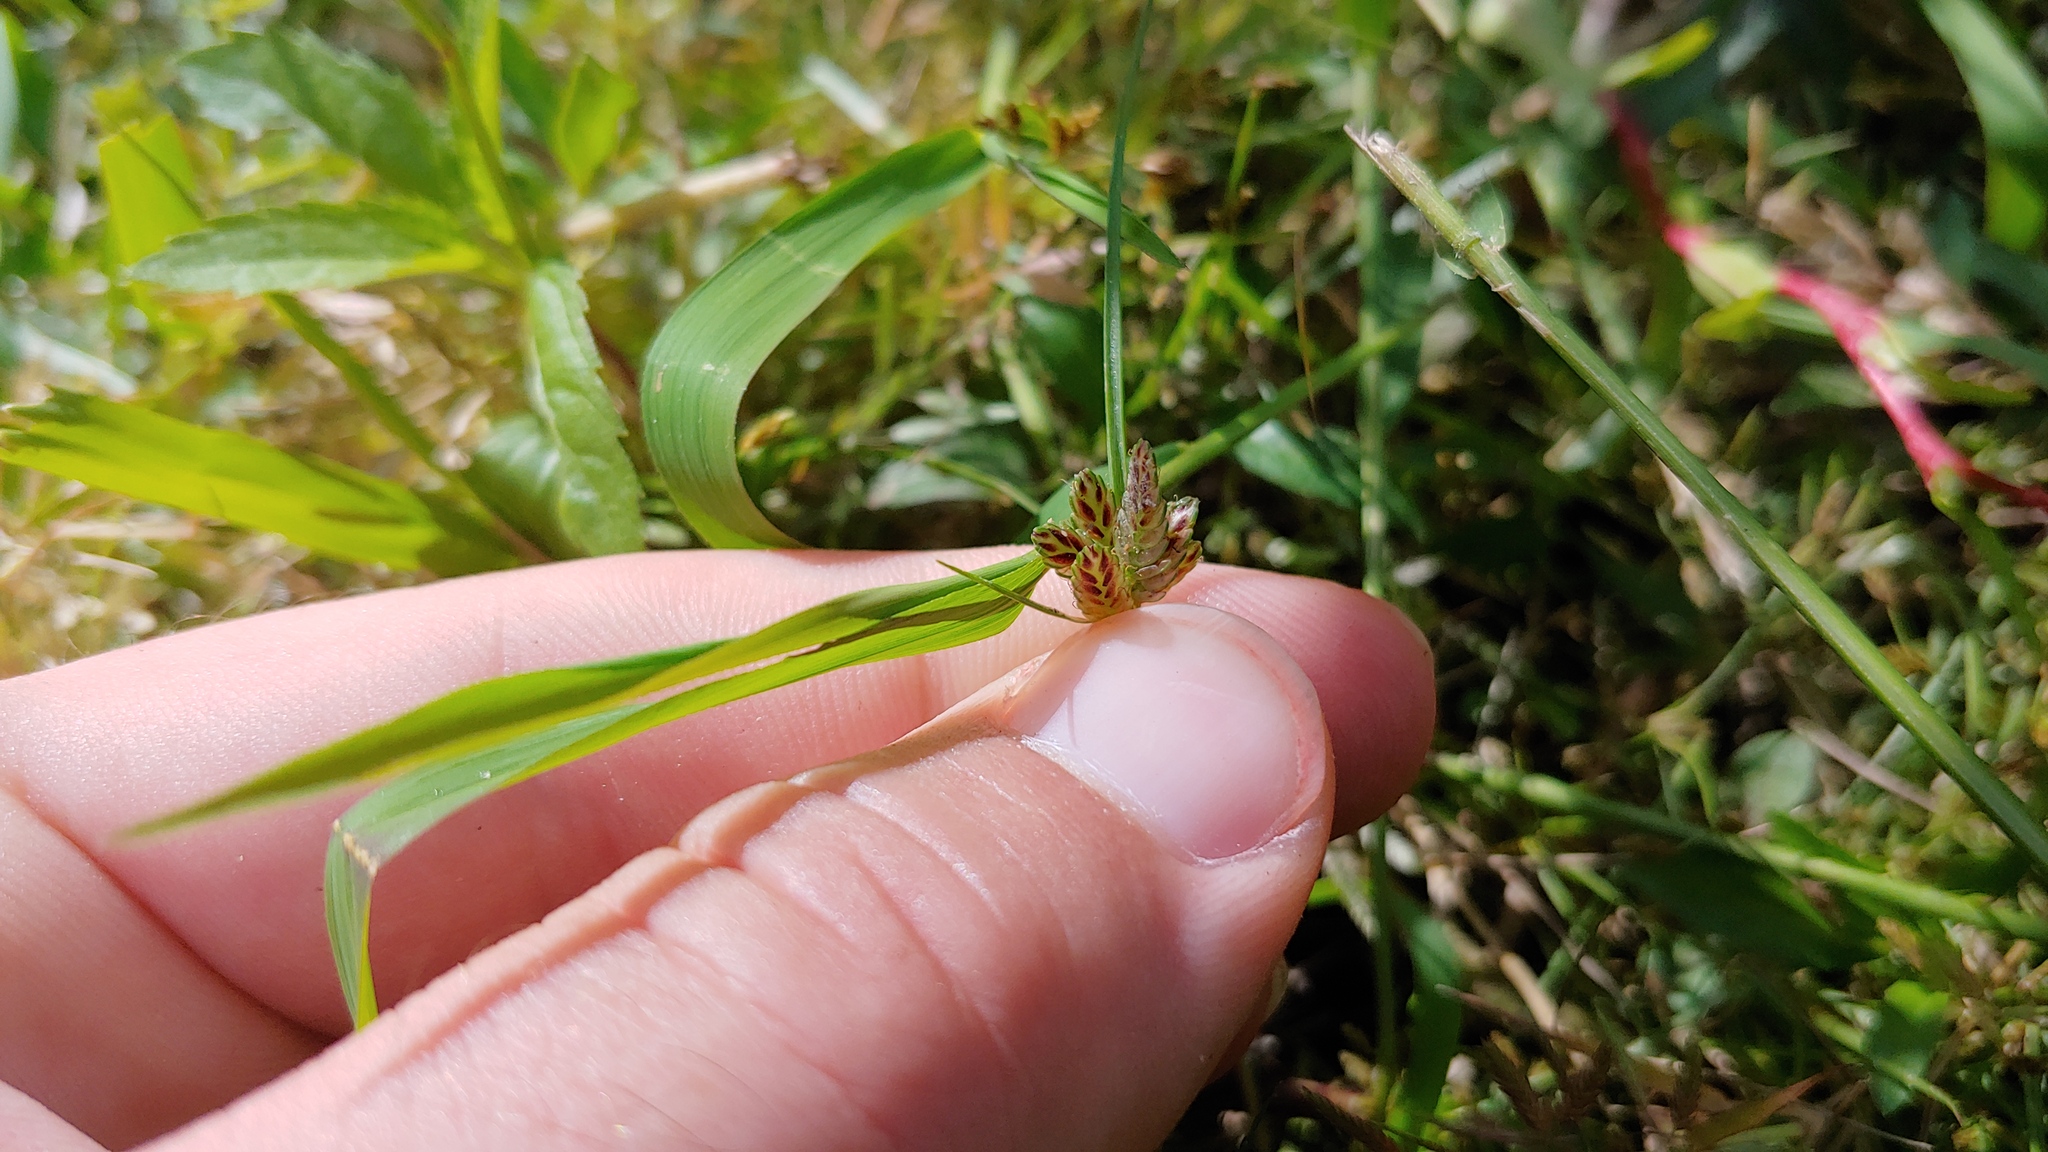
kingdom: Plantae
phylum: Tracheophyta
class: Liliopsida
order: Poales
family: Cyperaceae
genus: Cyperus
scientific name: Cyperus bipartitus
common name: Brook flatsedge
